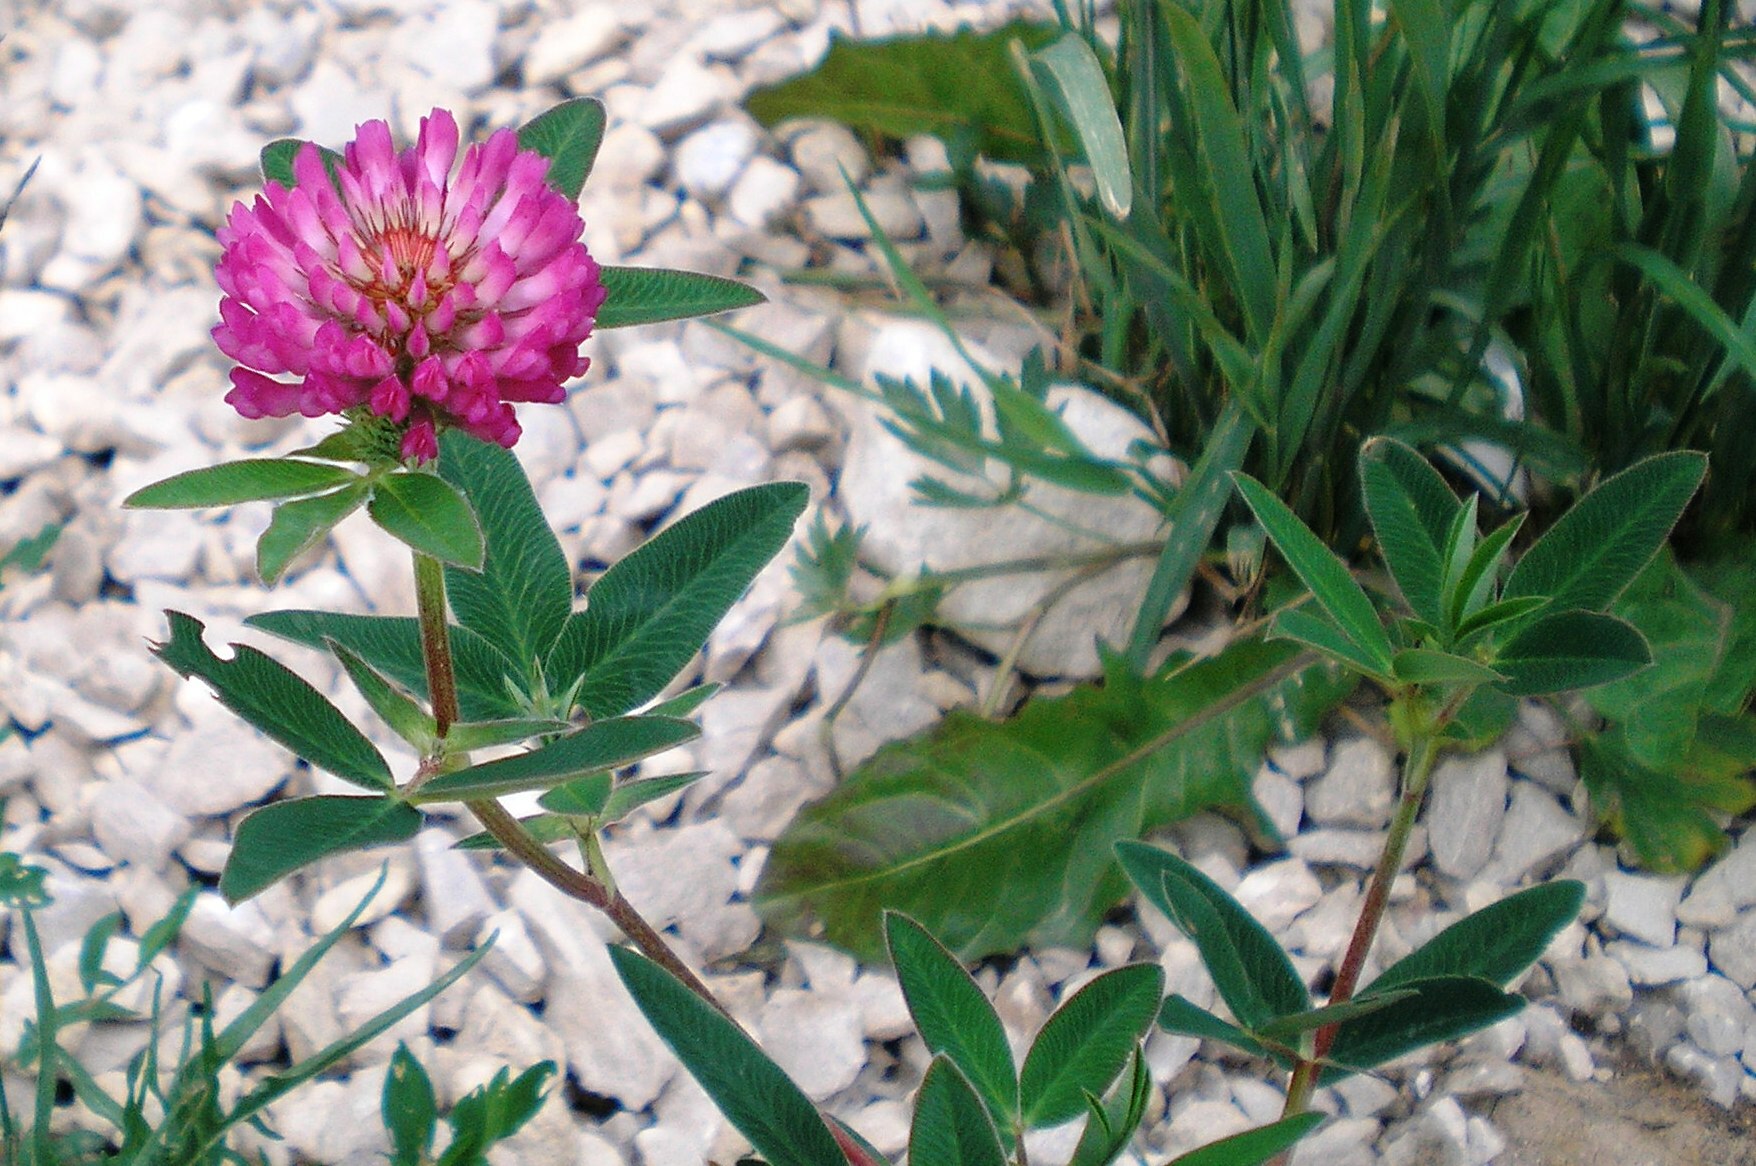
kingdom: Plantae
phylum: Tracheophyta
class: Magnoliopsida
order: Fabales
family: Fabaceae
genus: Trifolium
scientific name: Trifolium medium
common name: Zigzag clover
